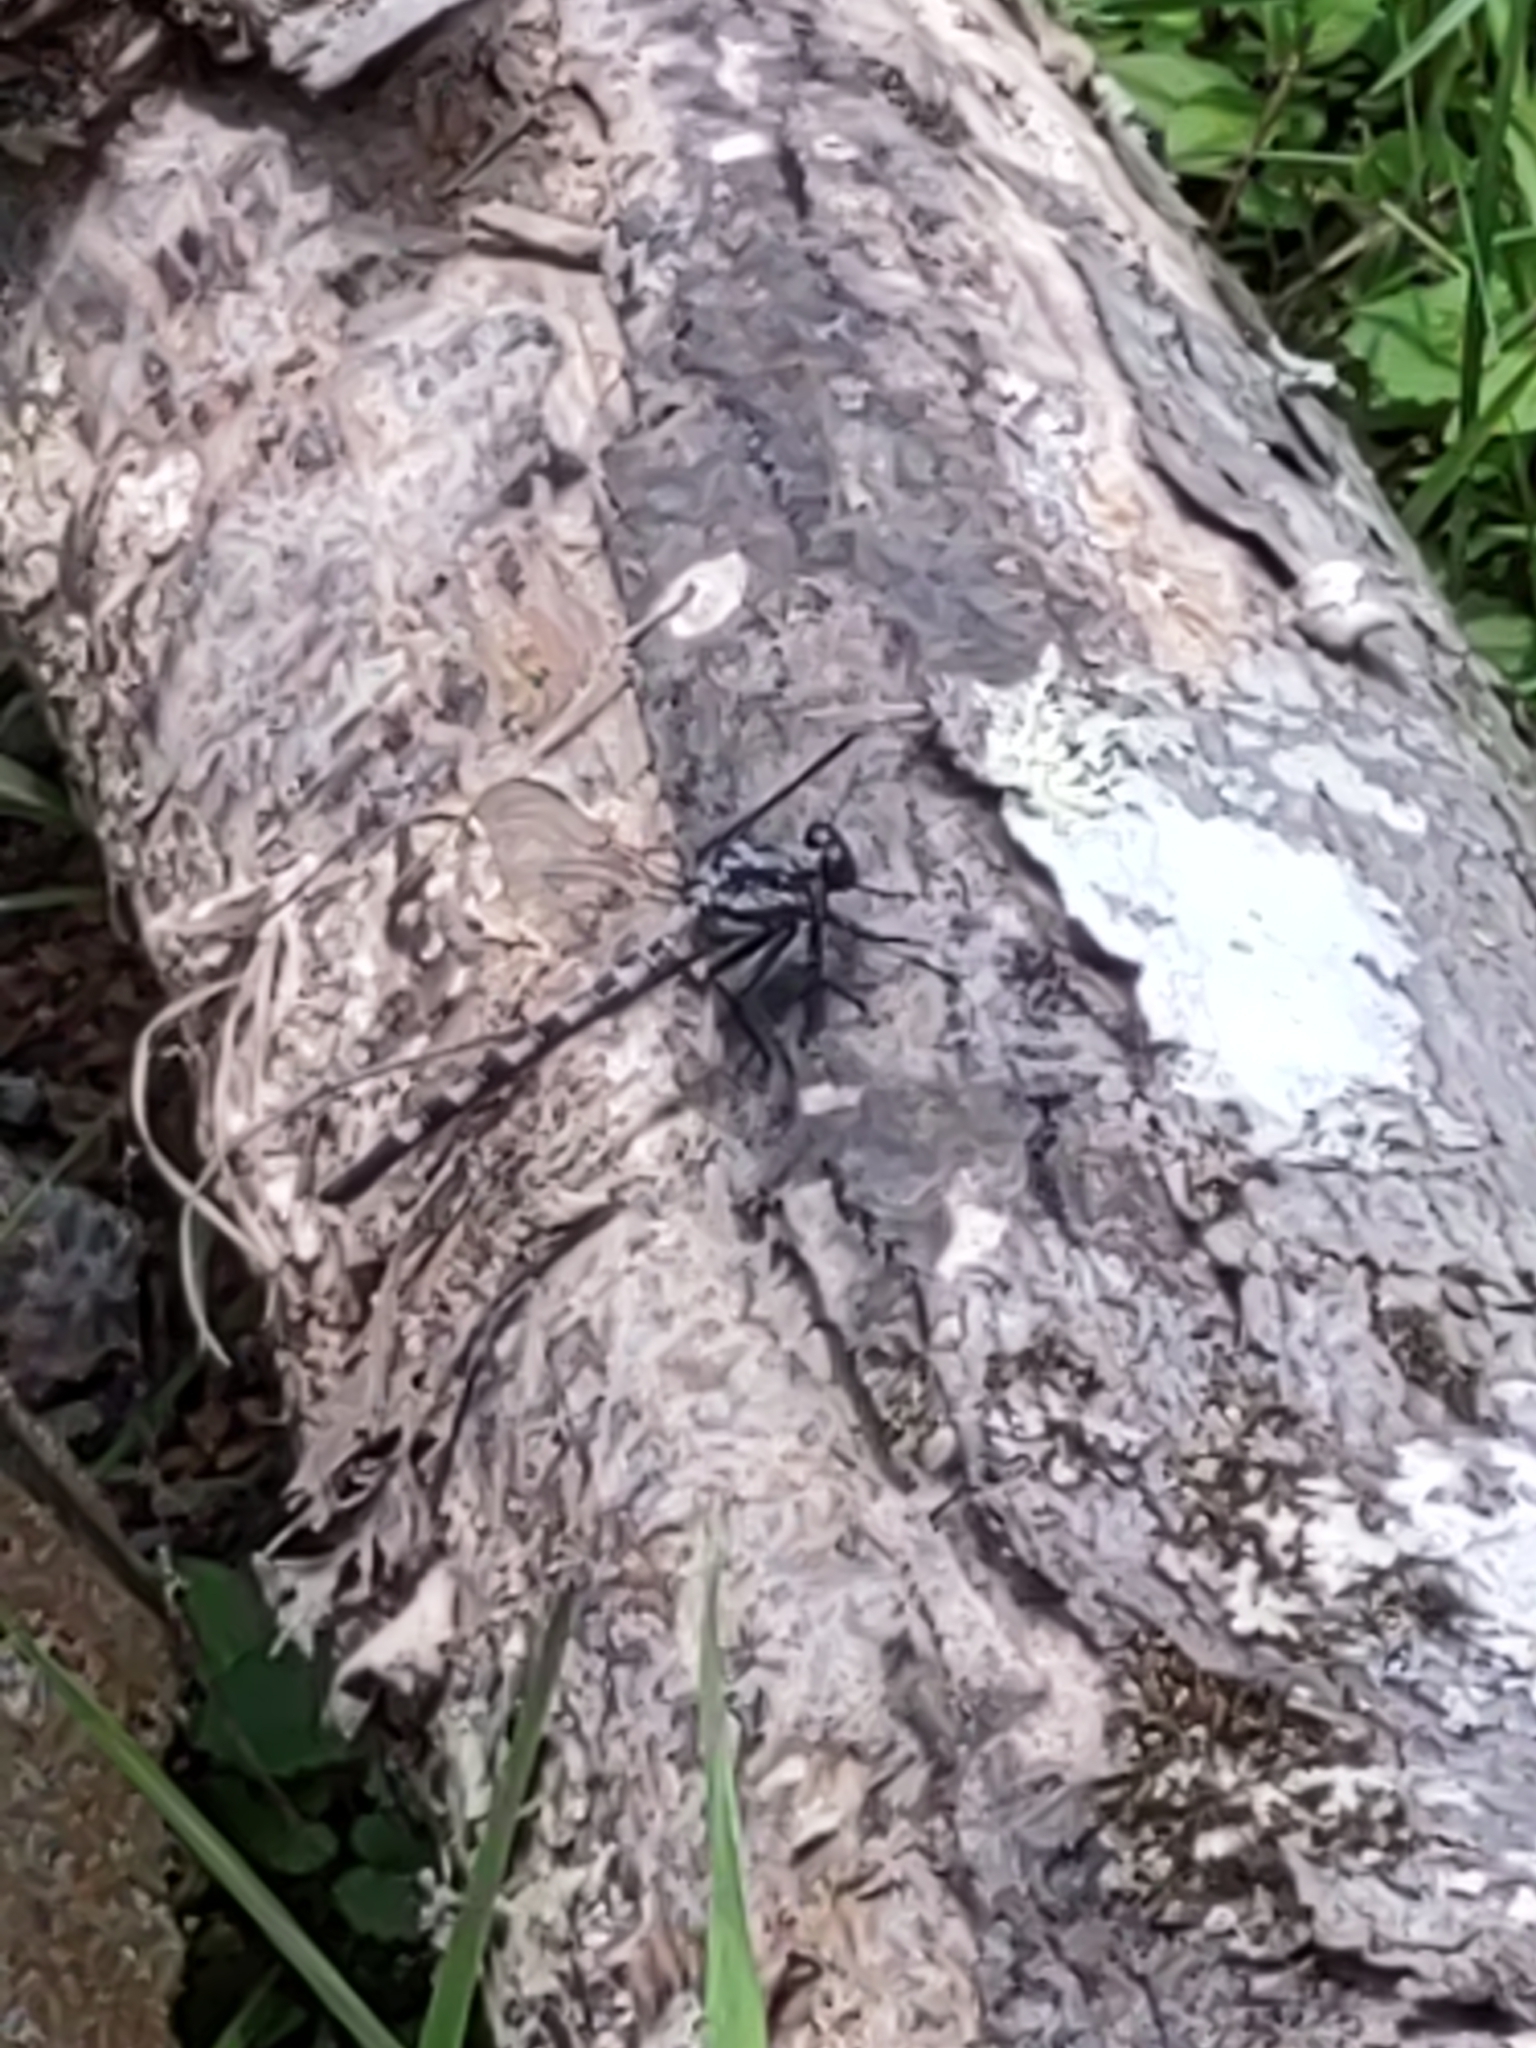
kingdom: Animalia
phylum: Arthropoda
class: Insecta
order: Odonata
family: Petaluridae
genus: Tachopteryx
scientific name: Tachopteryx thoreyi
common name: Gray petaltail
